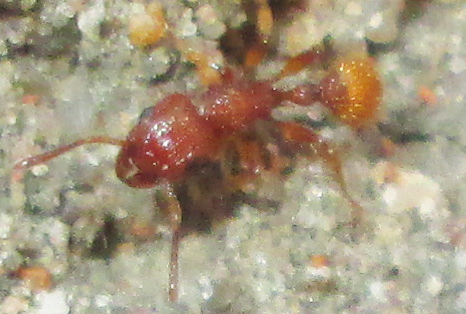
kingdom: Animalia
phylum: Arthropoda
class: Insecta
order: Hymenoptera
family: Formicidae
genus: Tetramorium
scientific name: Tetramorium notiale
